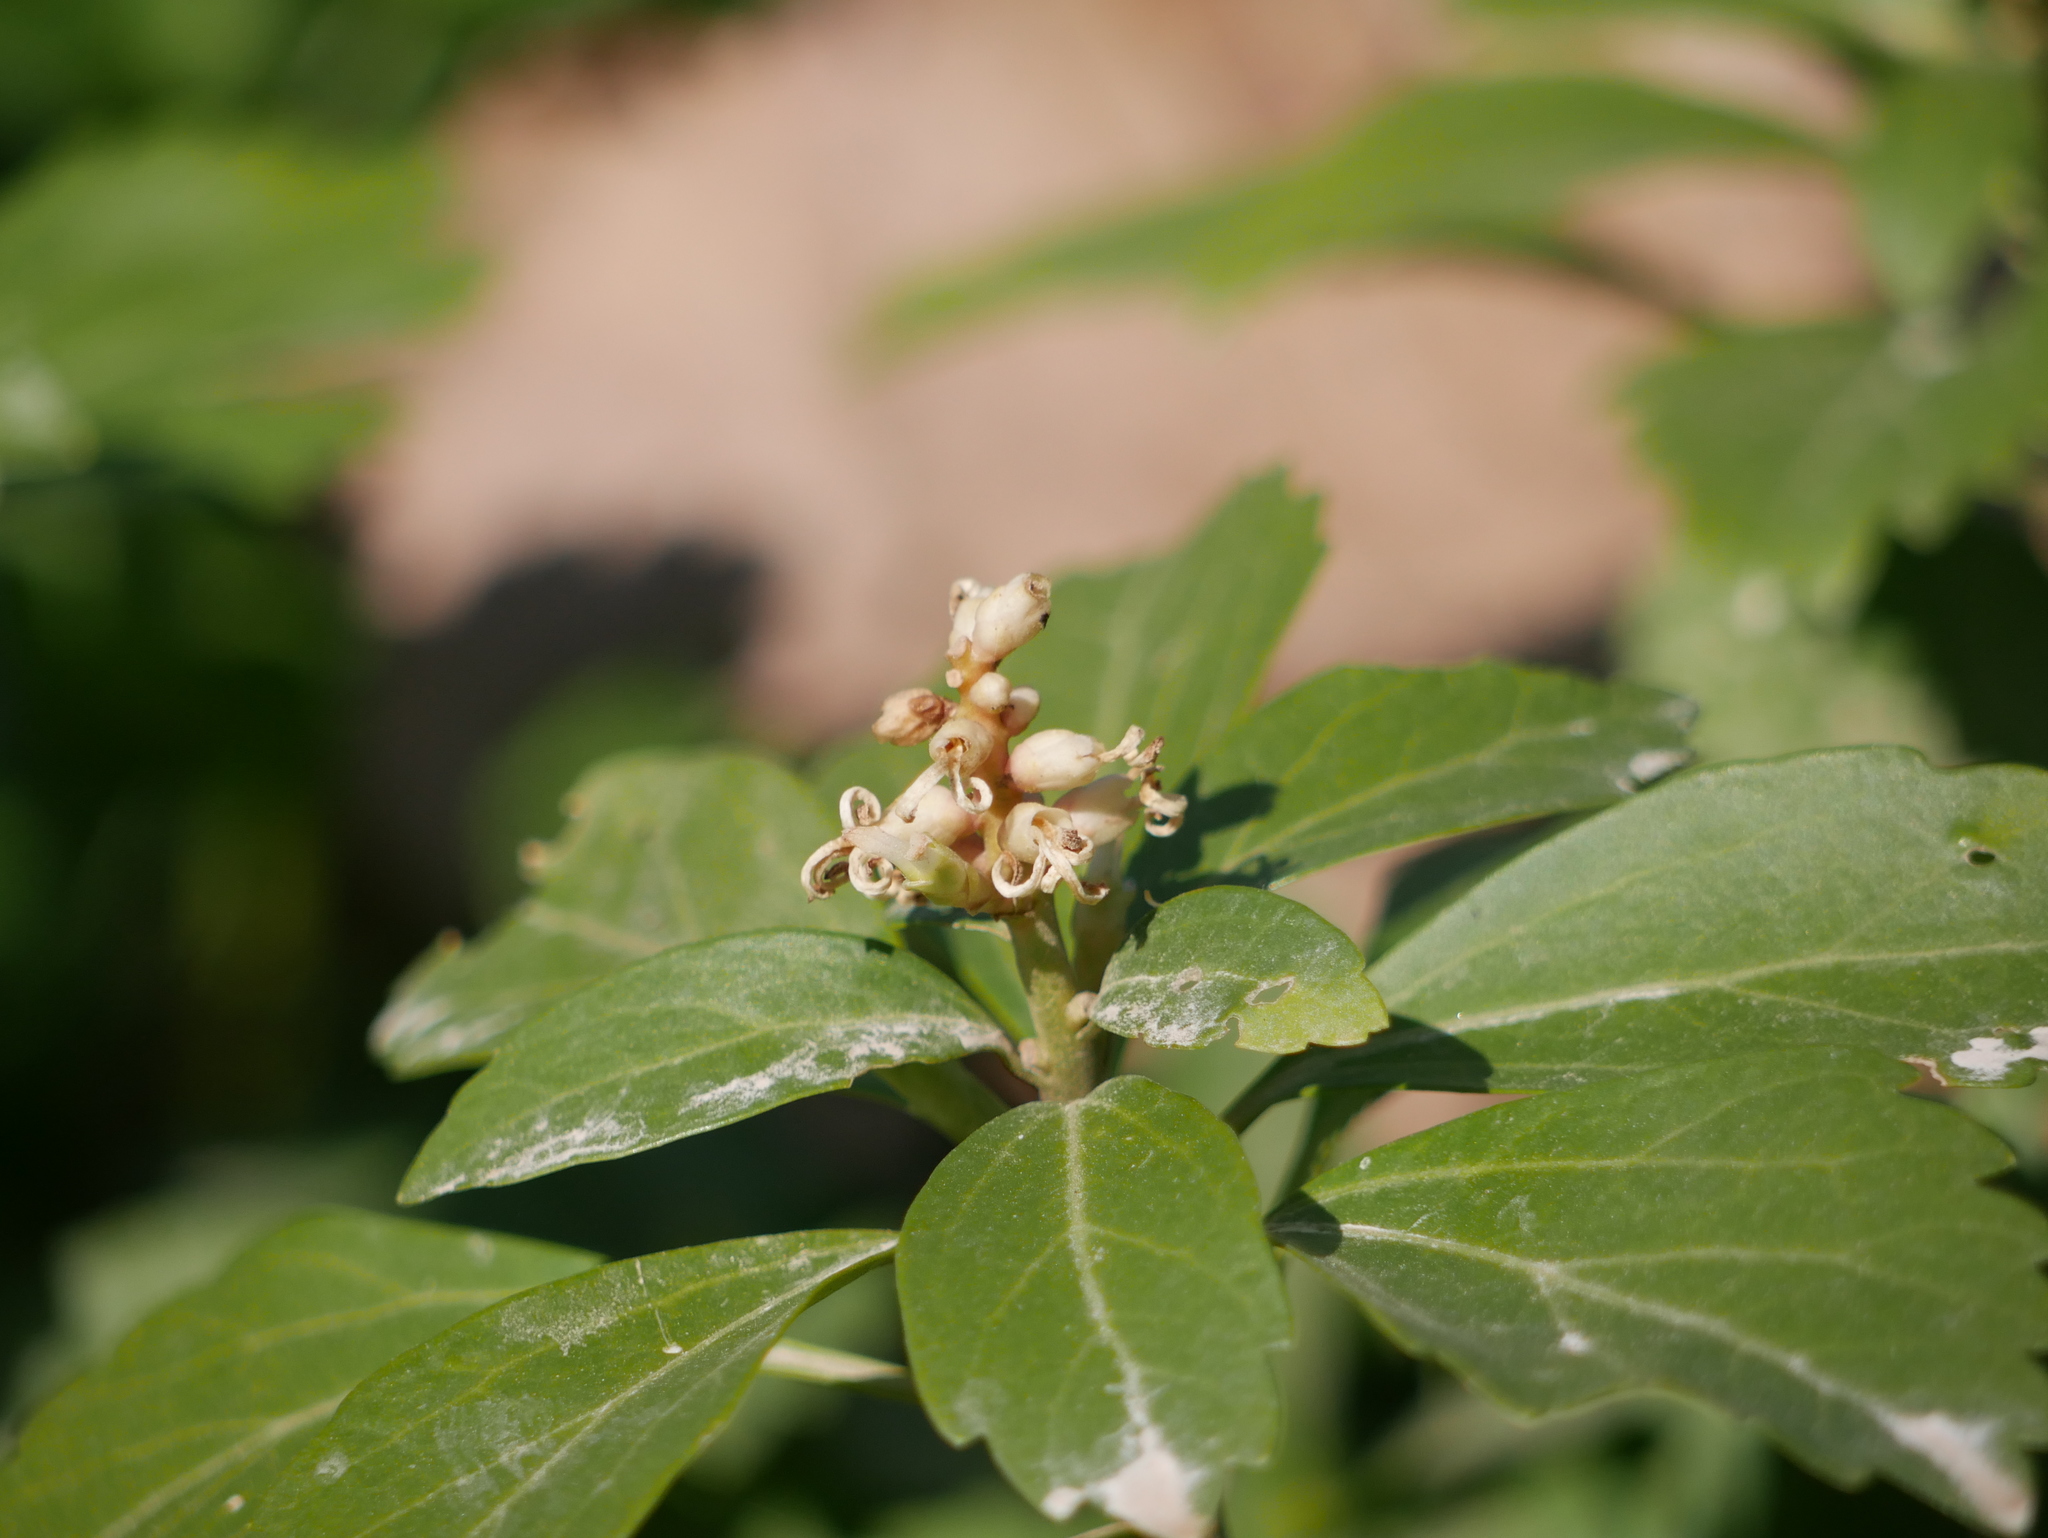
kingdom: Plantae
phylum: Tracheophyta
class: Magnoliopsida
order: Buxales
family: Buxaceae
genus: Pachysandra
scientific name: Pachysandra terminalis
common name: Japanese pachysandra
